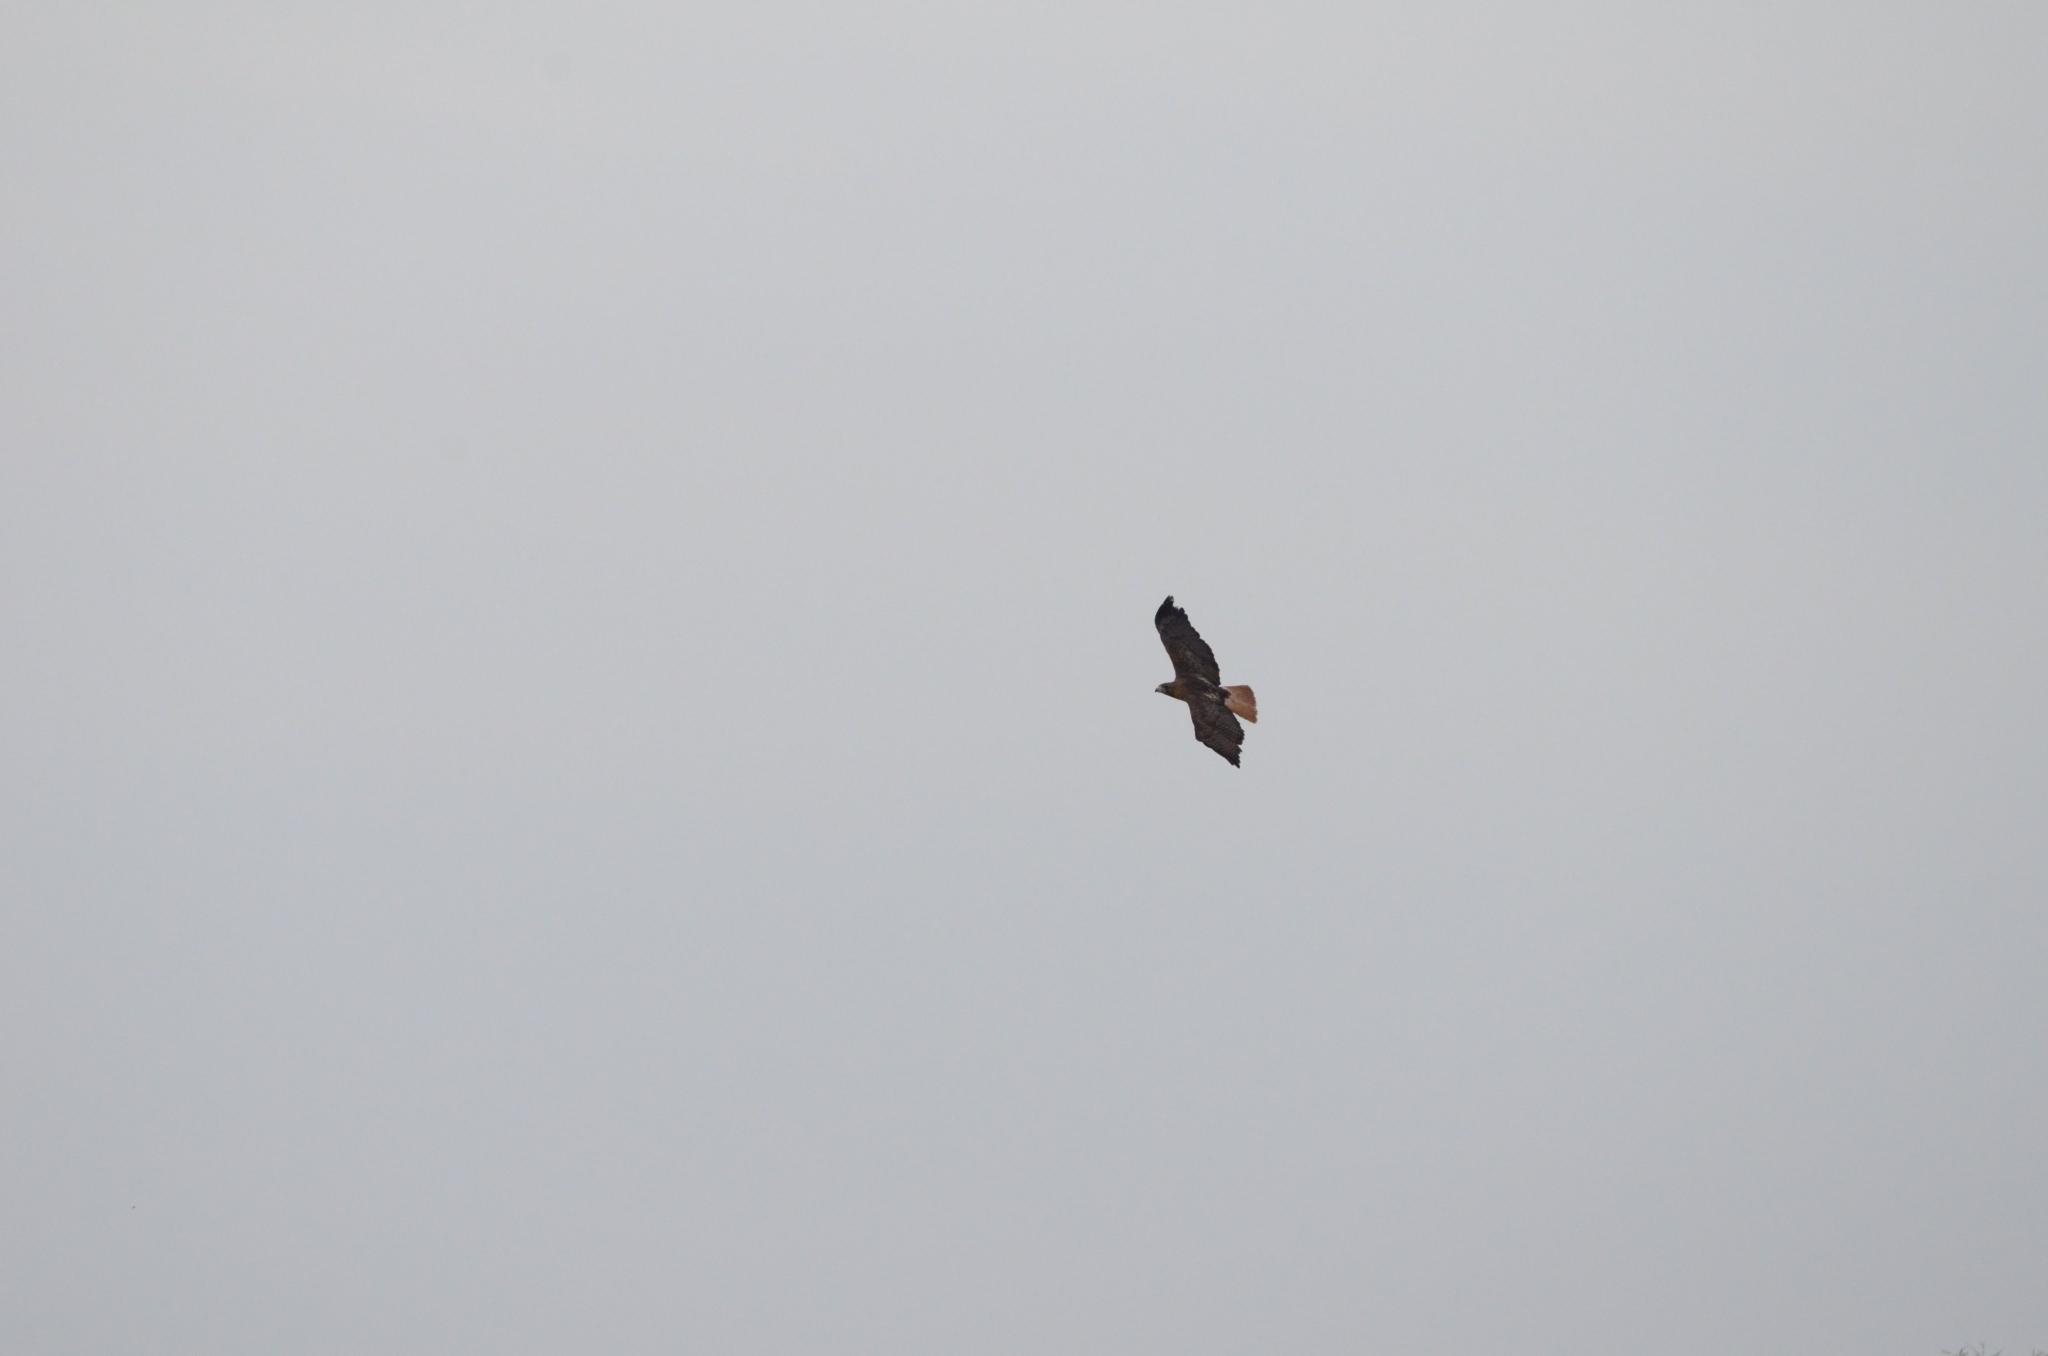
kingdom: Animalia
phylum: Chordata
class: Aves
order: Accipitriformes
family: Accipitridae
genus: Buteo
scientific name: Buteo jamaicensis
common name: Red-tailed hawk
